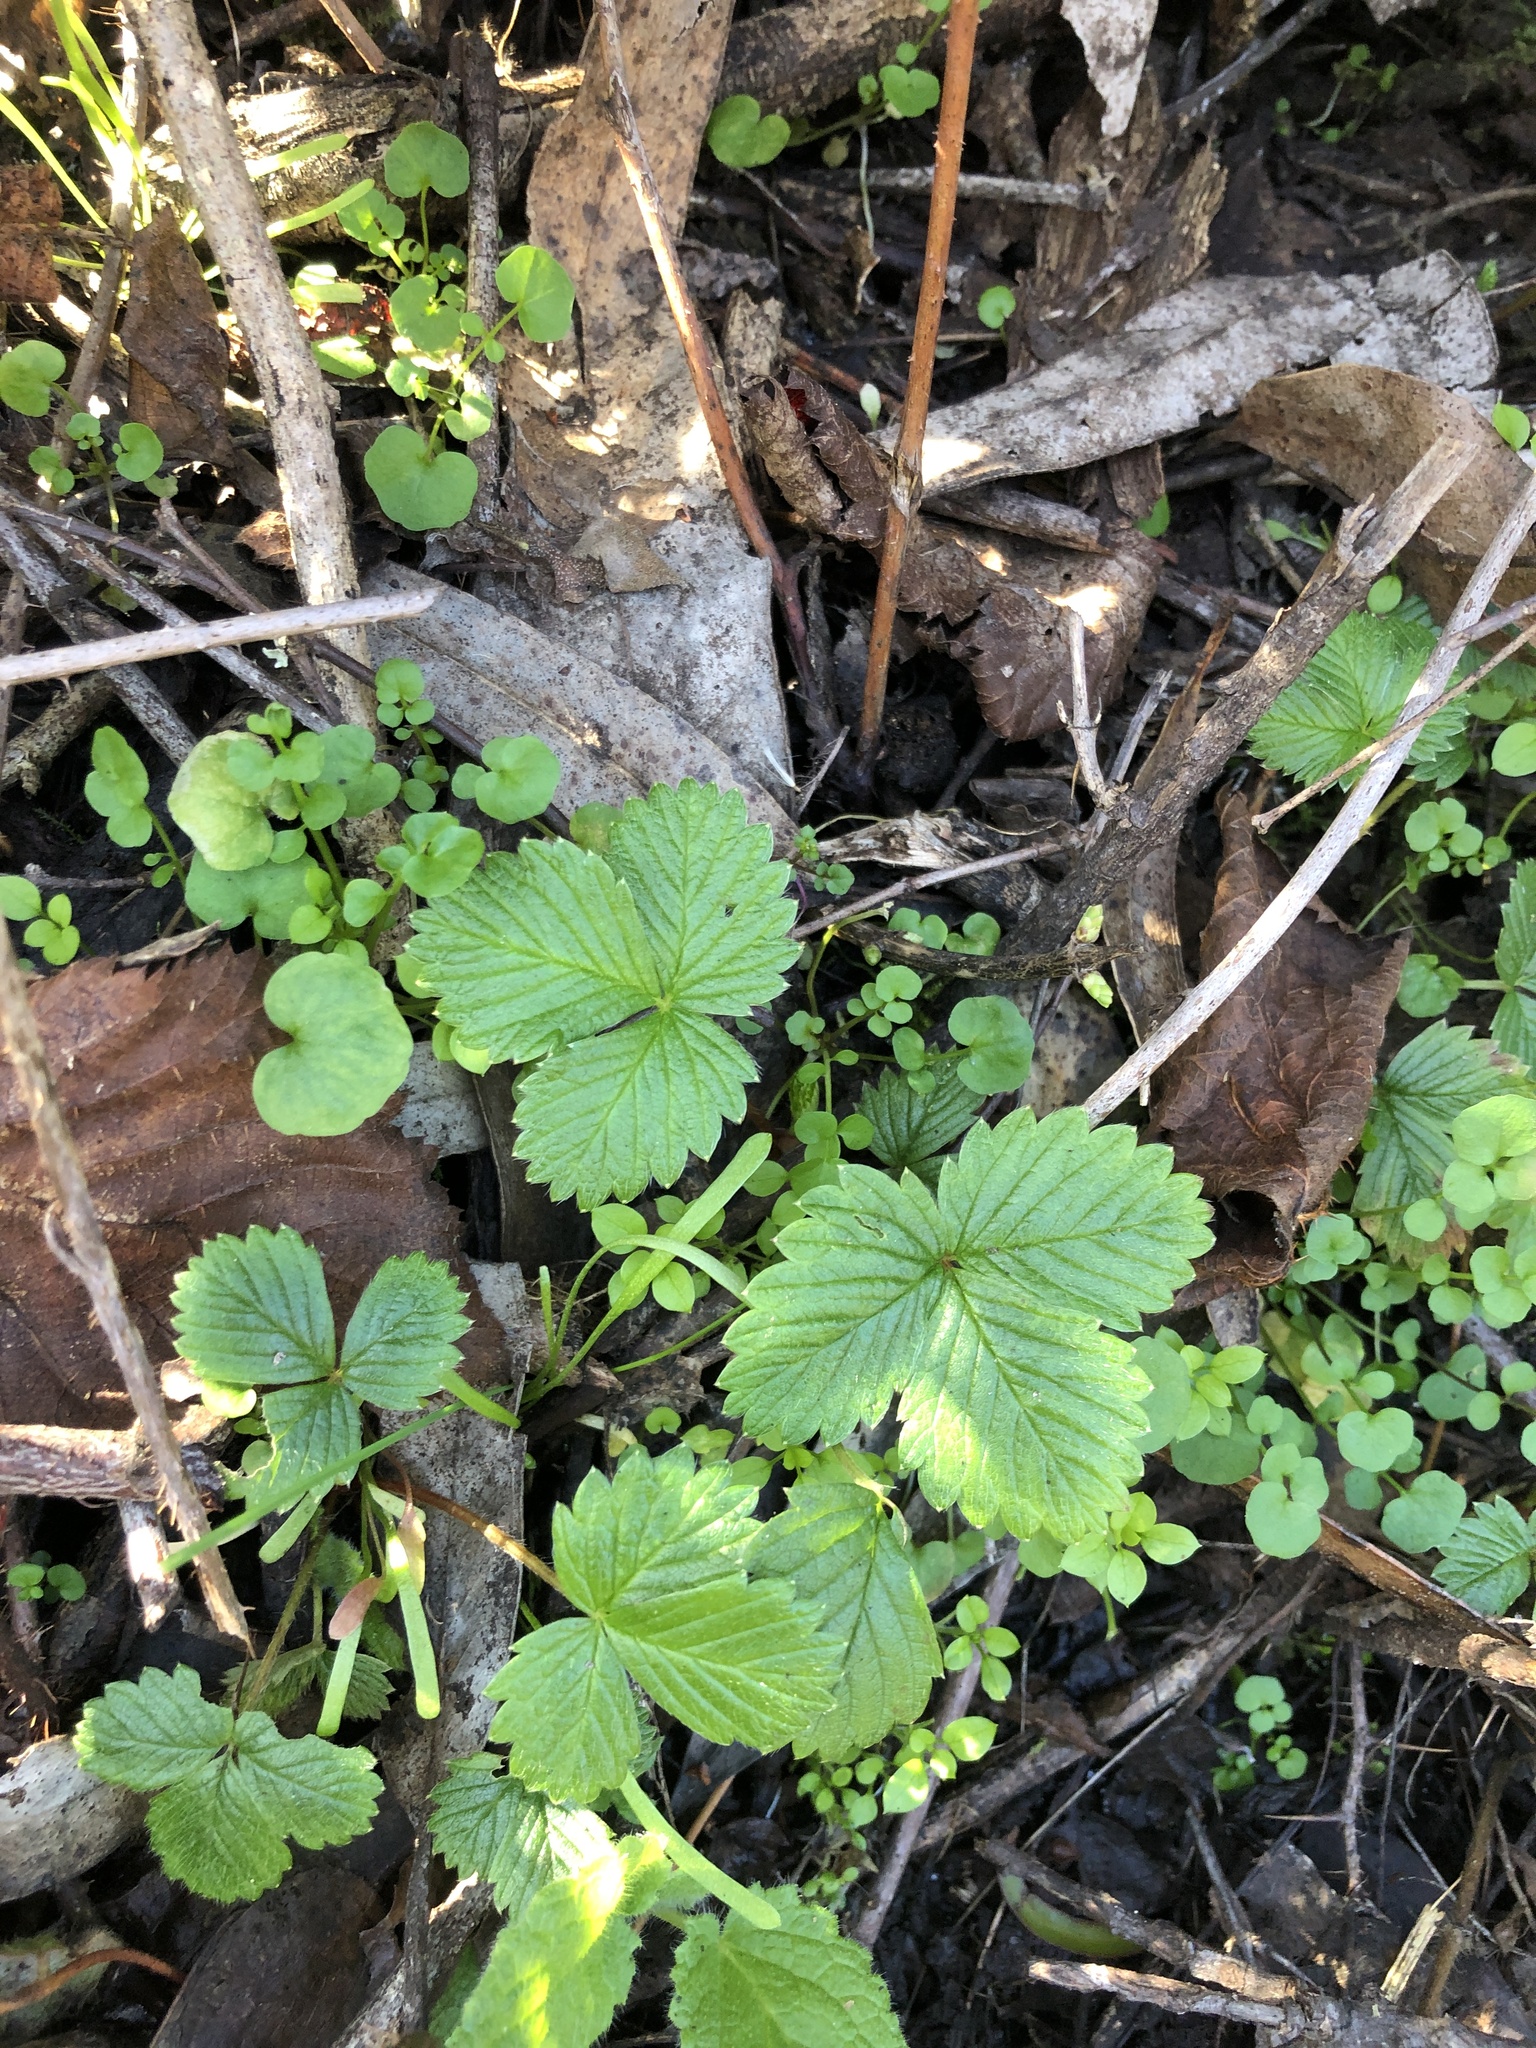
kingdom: Plantae
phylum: Tracheophyta
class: Magnoliopsida
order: Rosales
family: Rosaceae
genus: Fragaria
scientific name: Fragaria vesca
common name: Wild strawberry
